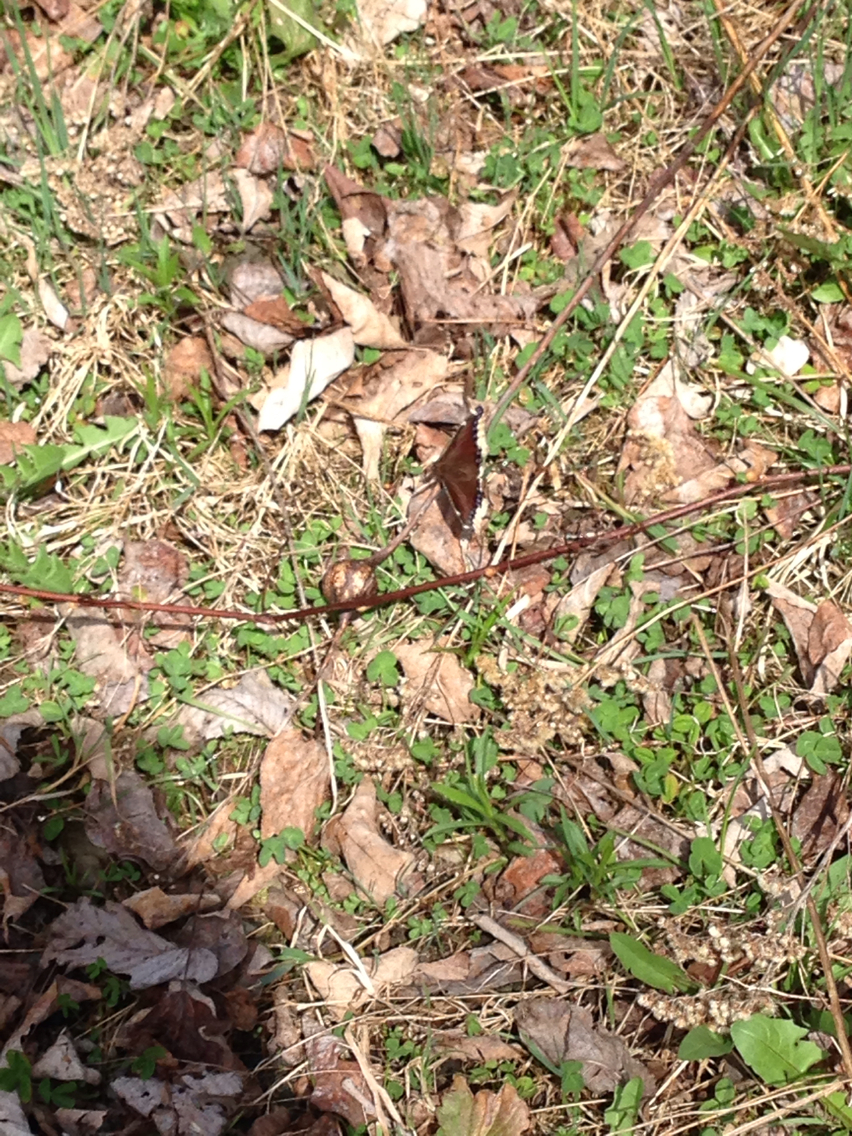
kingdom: Animalia
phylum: Arthropoda
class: Insecta
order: Lepidoptera
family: Nymphalidae
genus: Nymphalis
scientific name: Nymphalis antiopa
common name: Camberwell beauty
